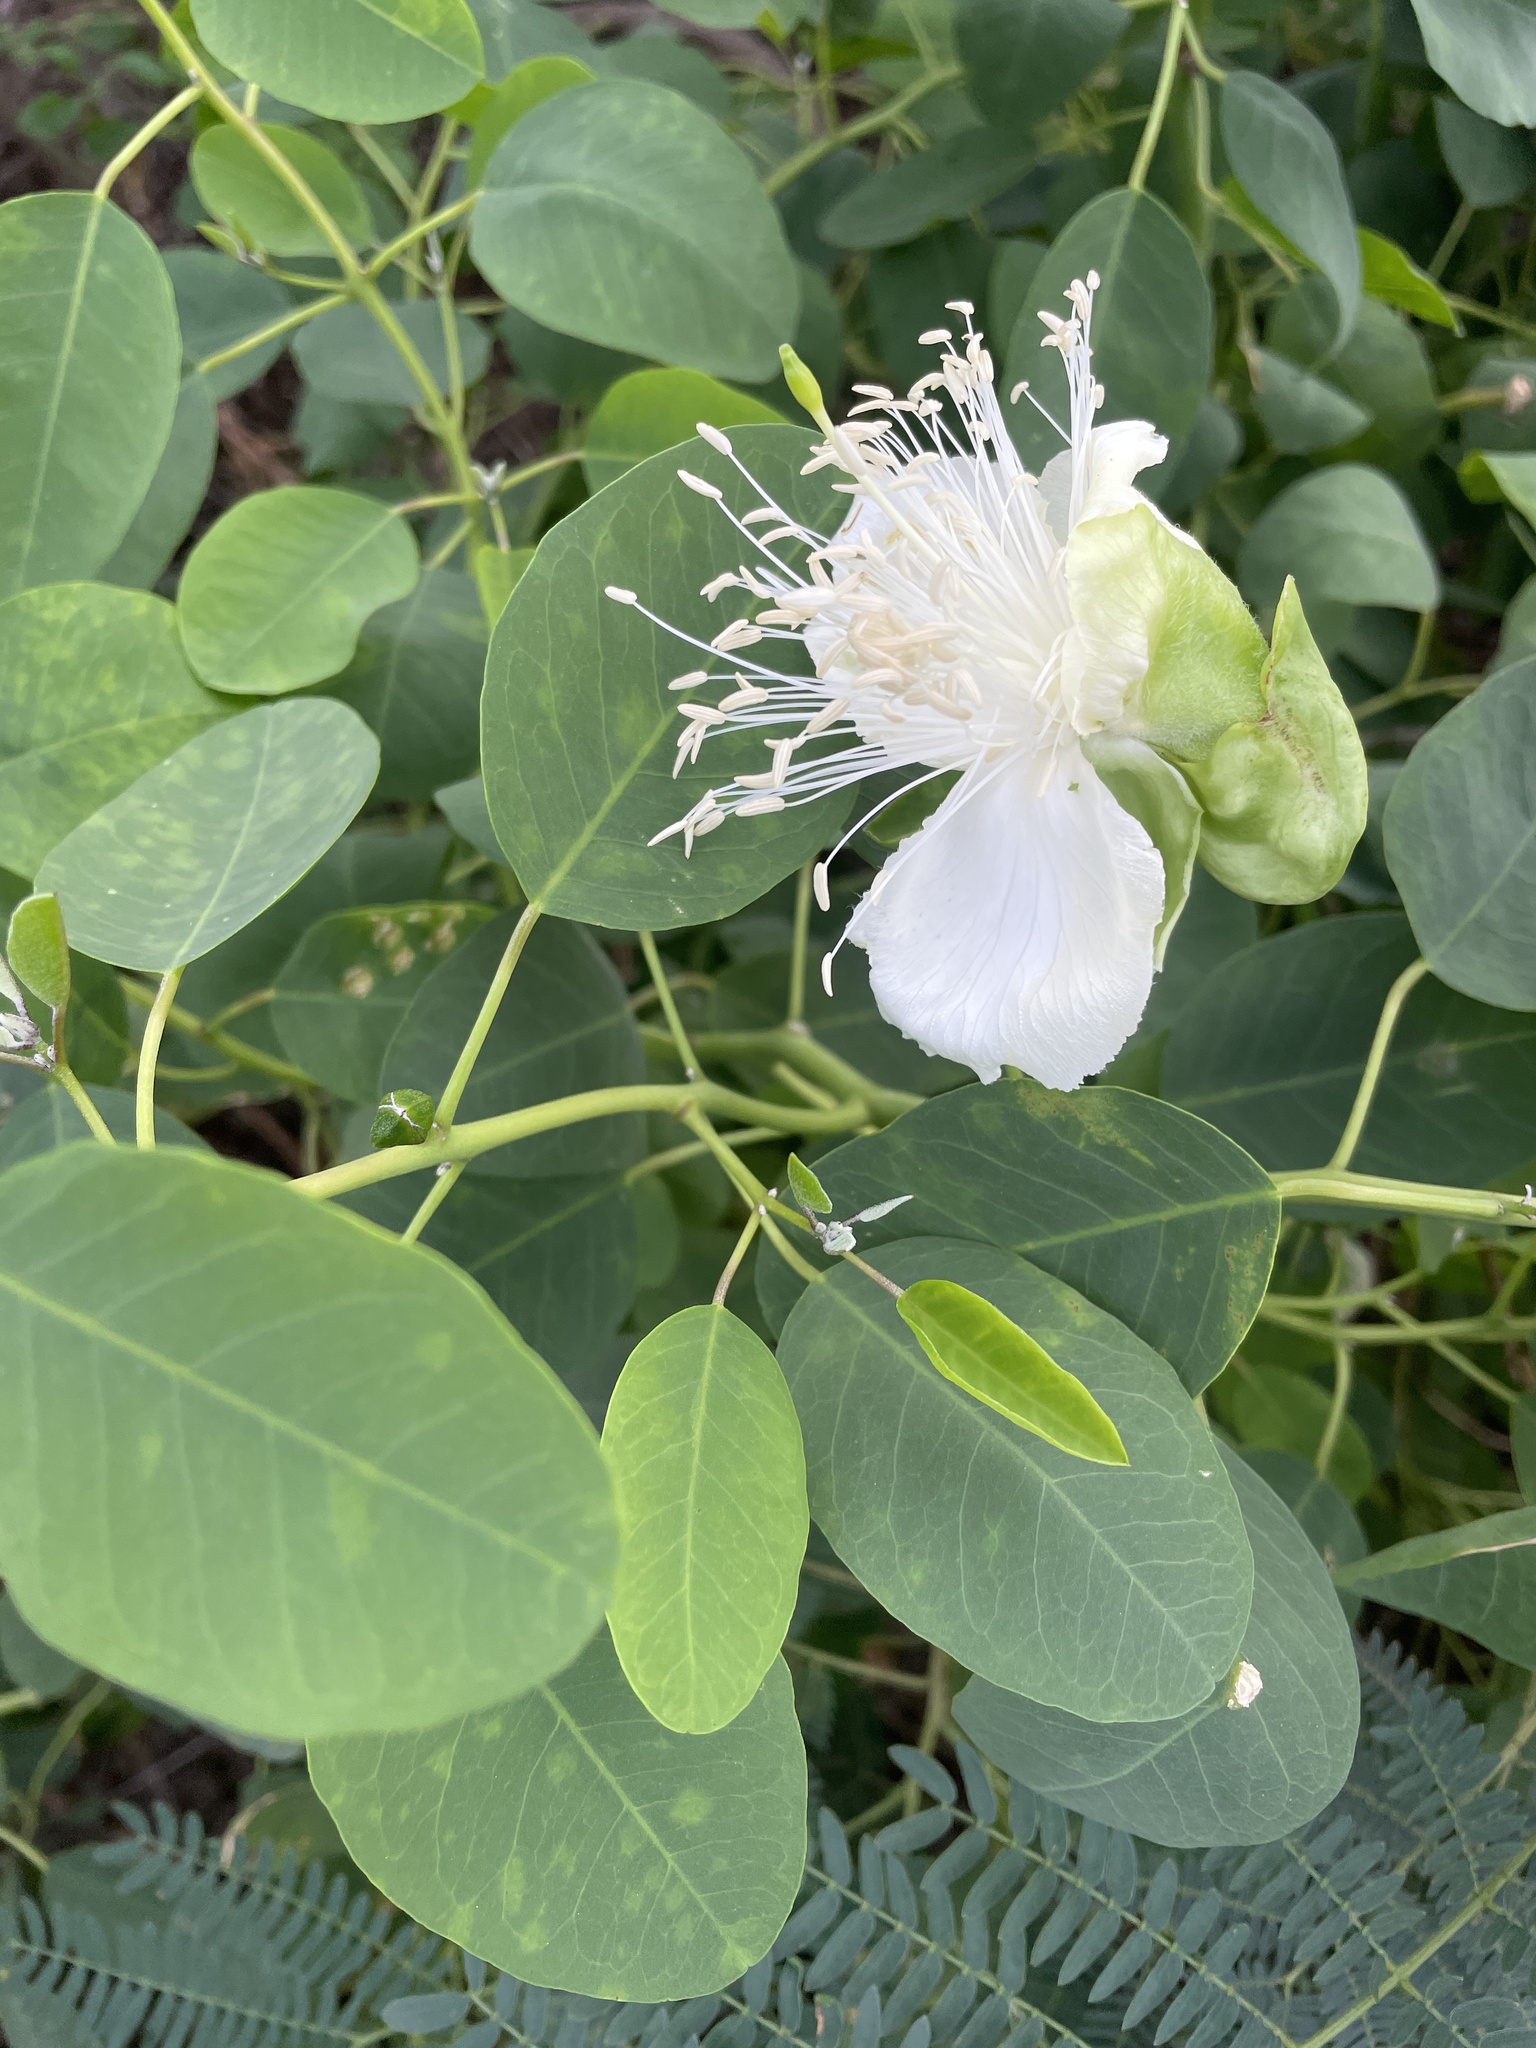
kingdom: Plantae
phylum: Tracheophyta
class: Magnoliopsida
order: Brassicales
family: Capparaceae
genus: Capparis
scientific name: Capparis spinosa
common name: Caper
